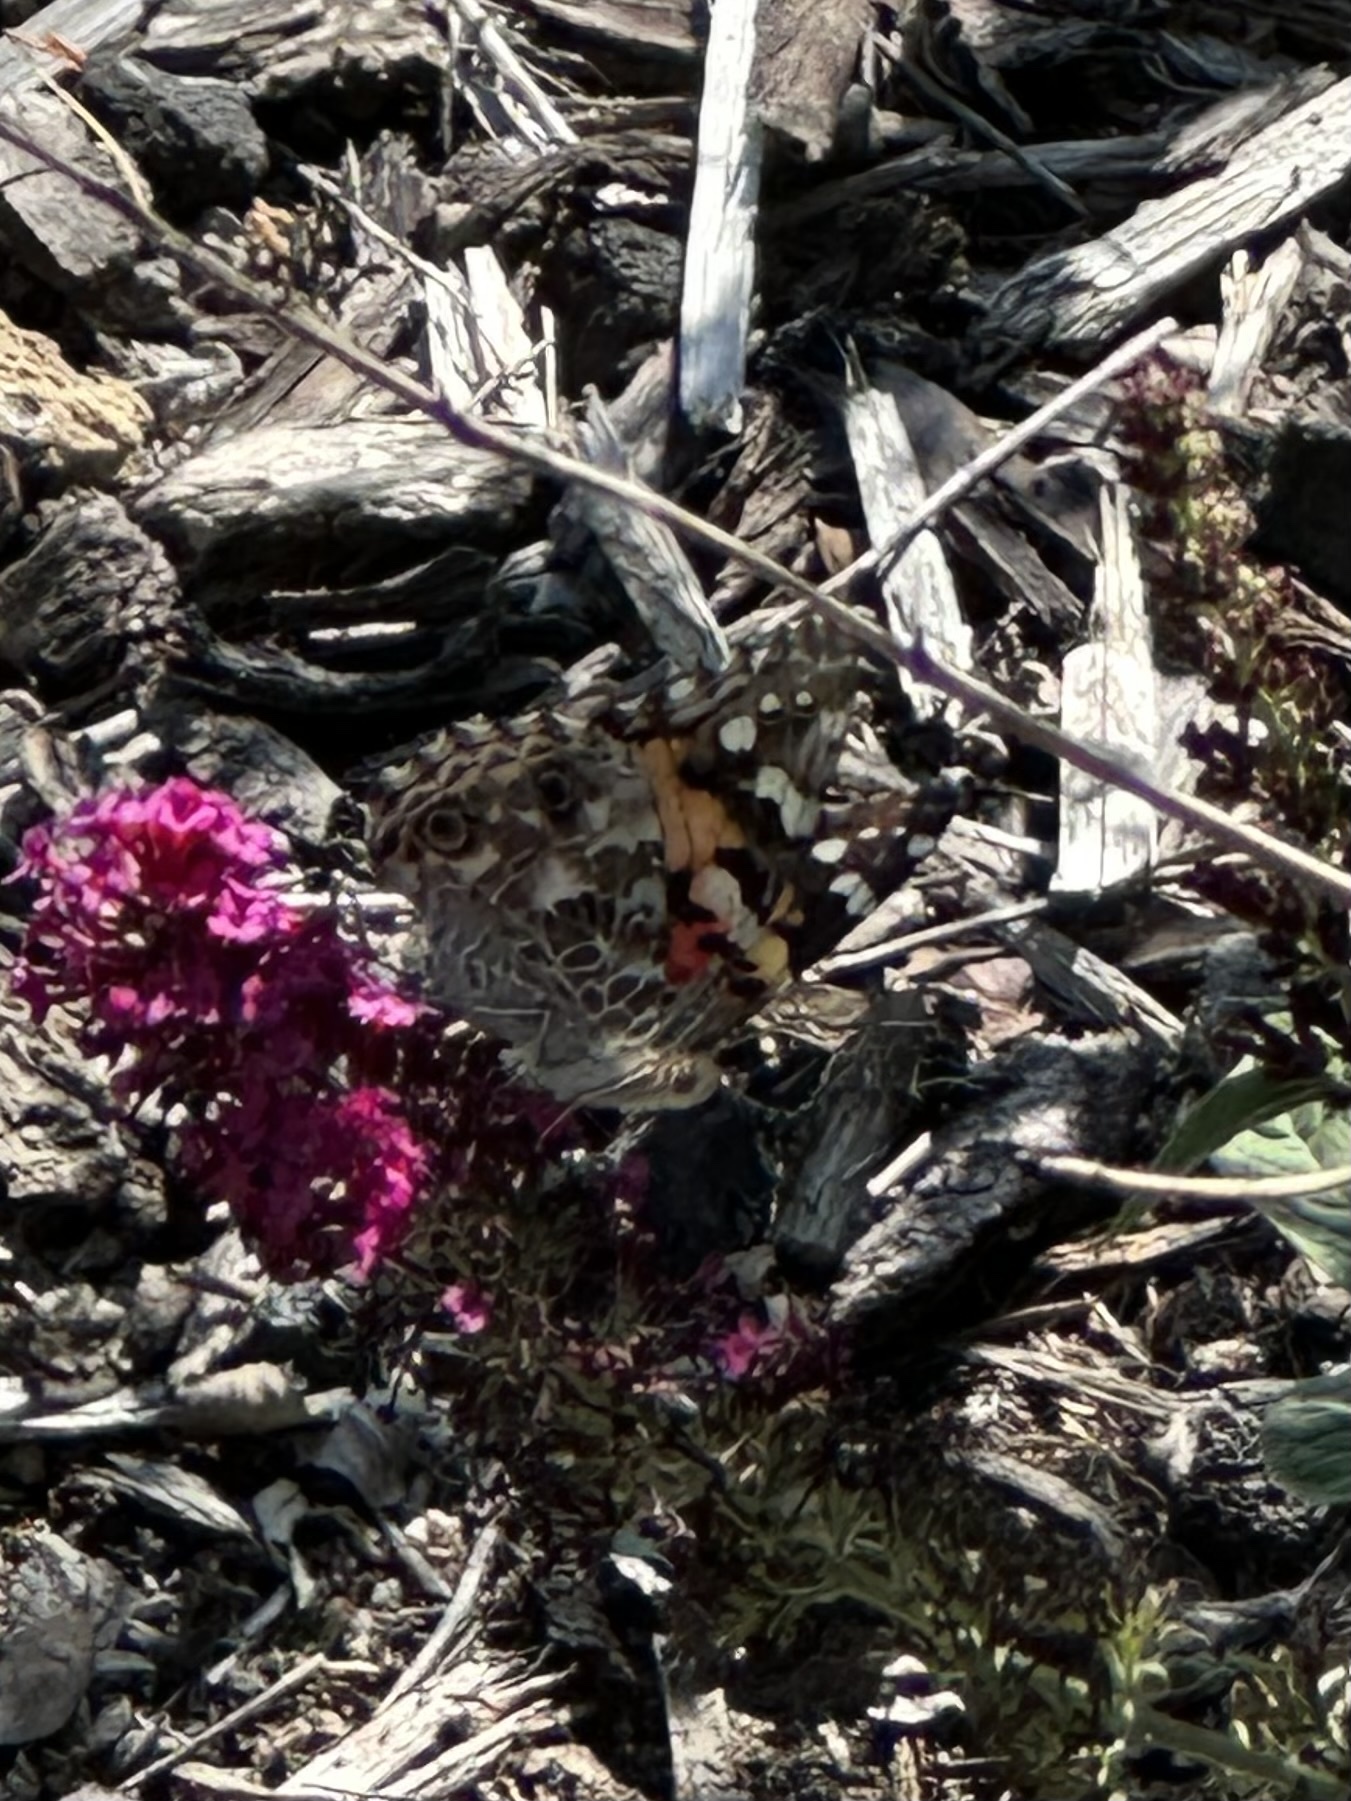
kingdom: Animalia
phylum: Arthropoda
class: Insecta
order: Lepidoptera
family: Nymphalidae
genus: Vanessa
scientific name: Vanessa cardui
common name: Painted lady
